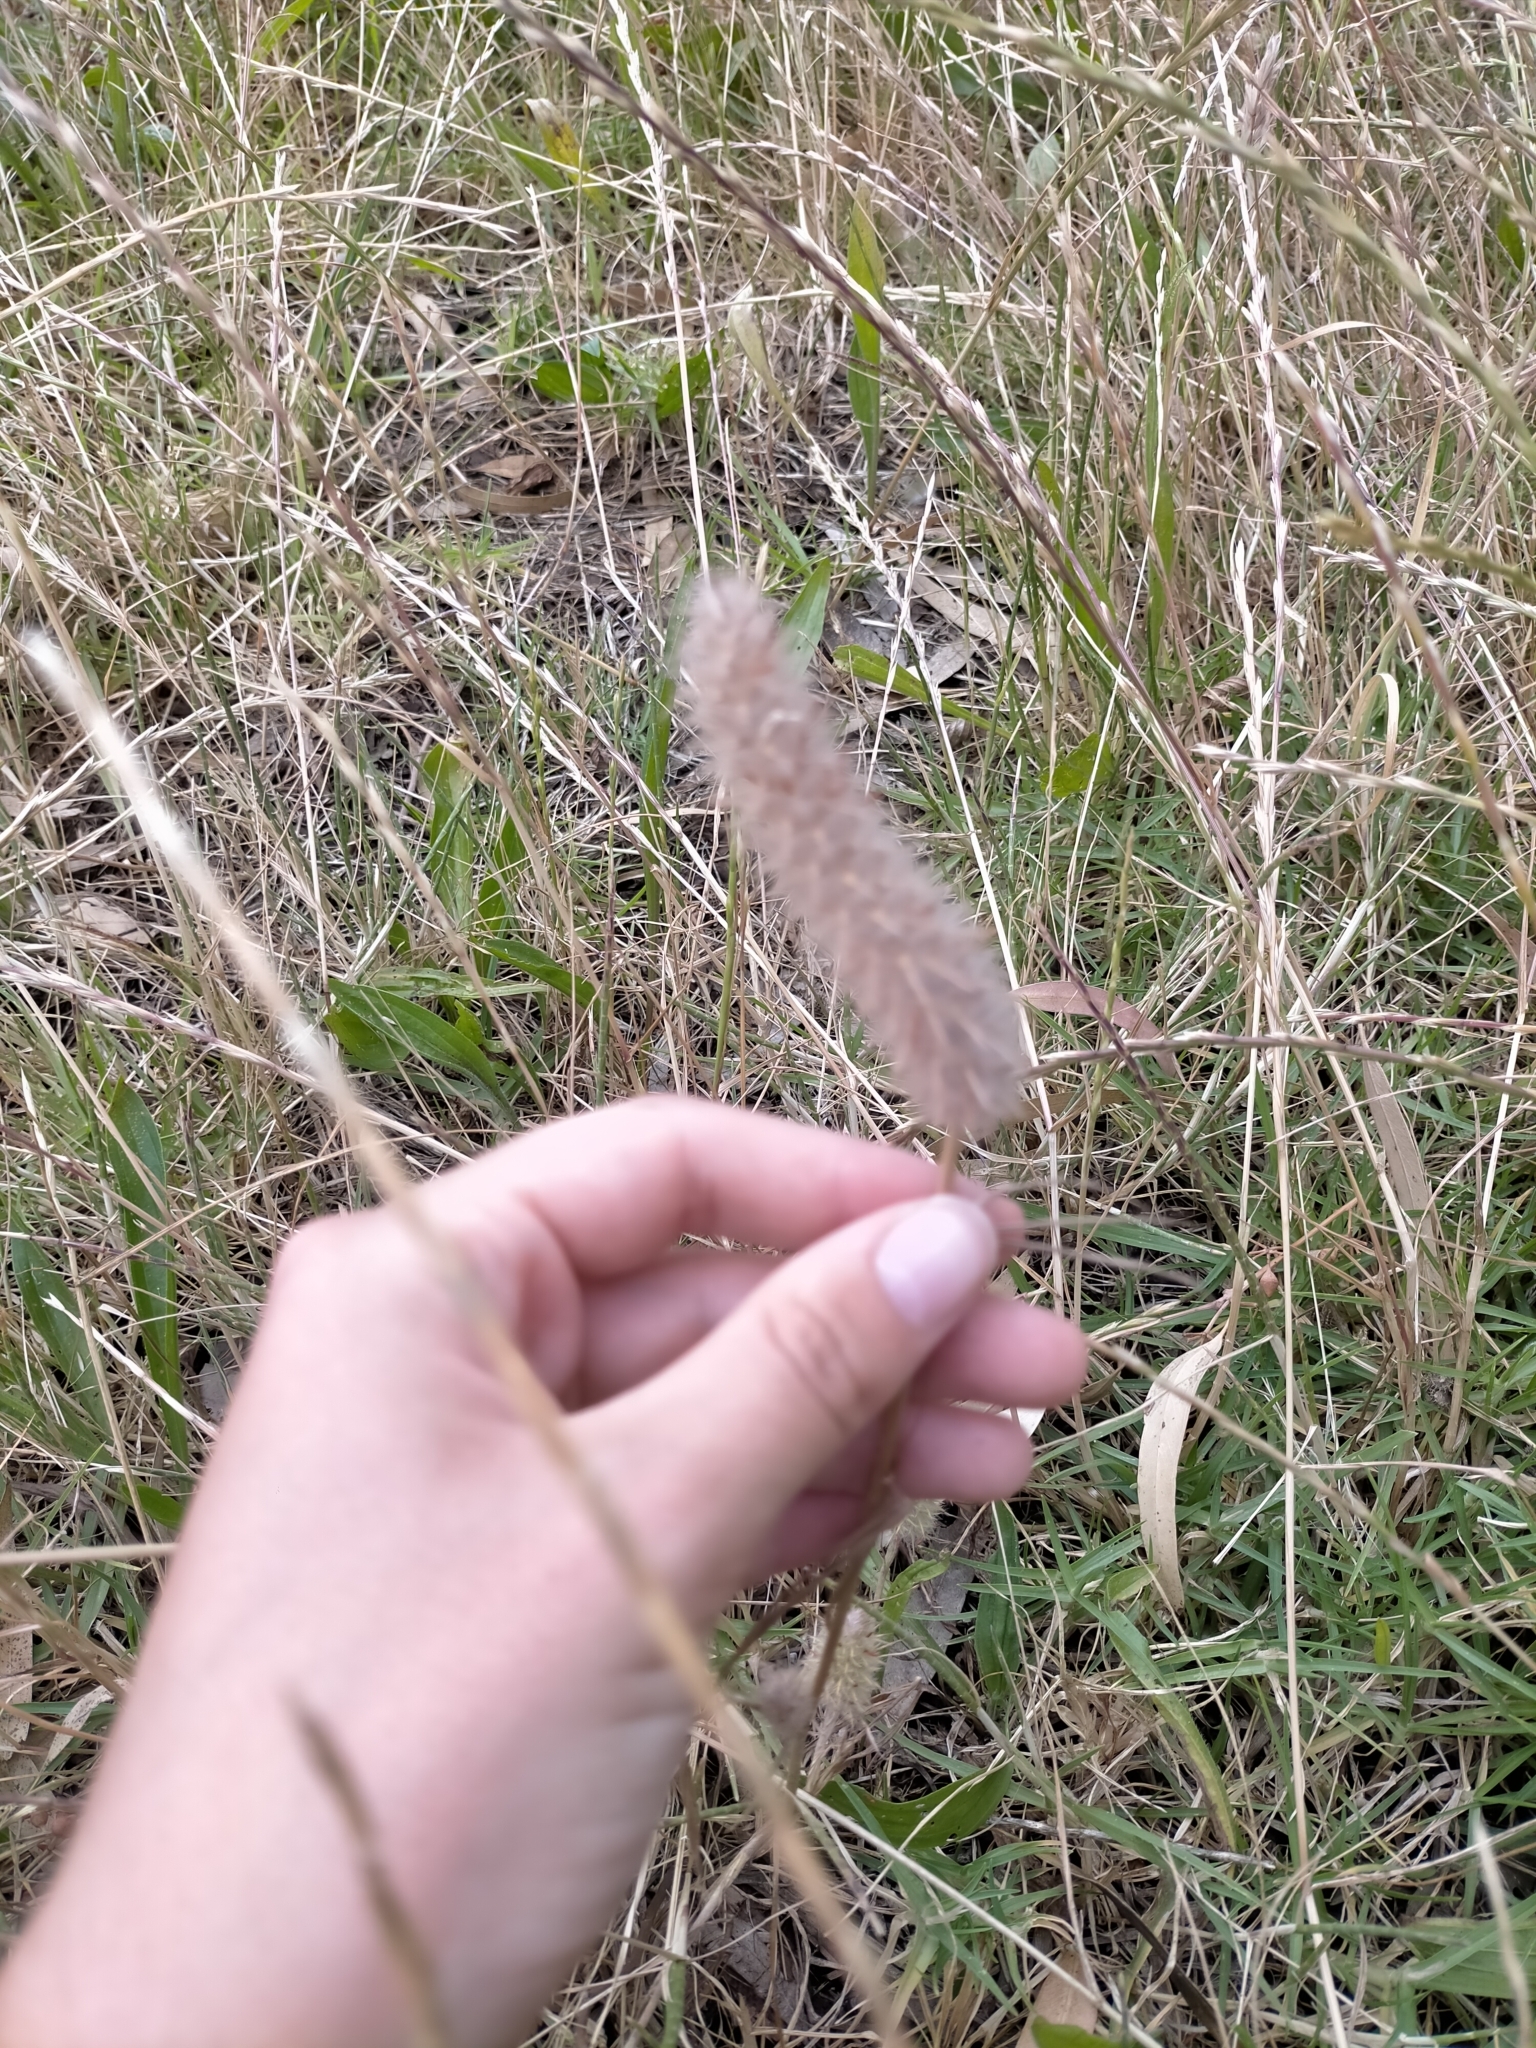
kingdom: Plantae
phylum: Tracheophyta
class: Magnoliopsida
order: Fabales
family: Fabaceae
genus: Trifolium
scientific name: Trifolium angustifolium
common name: Narrow clover
